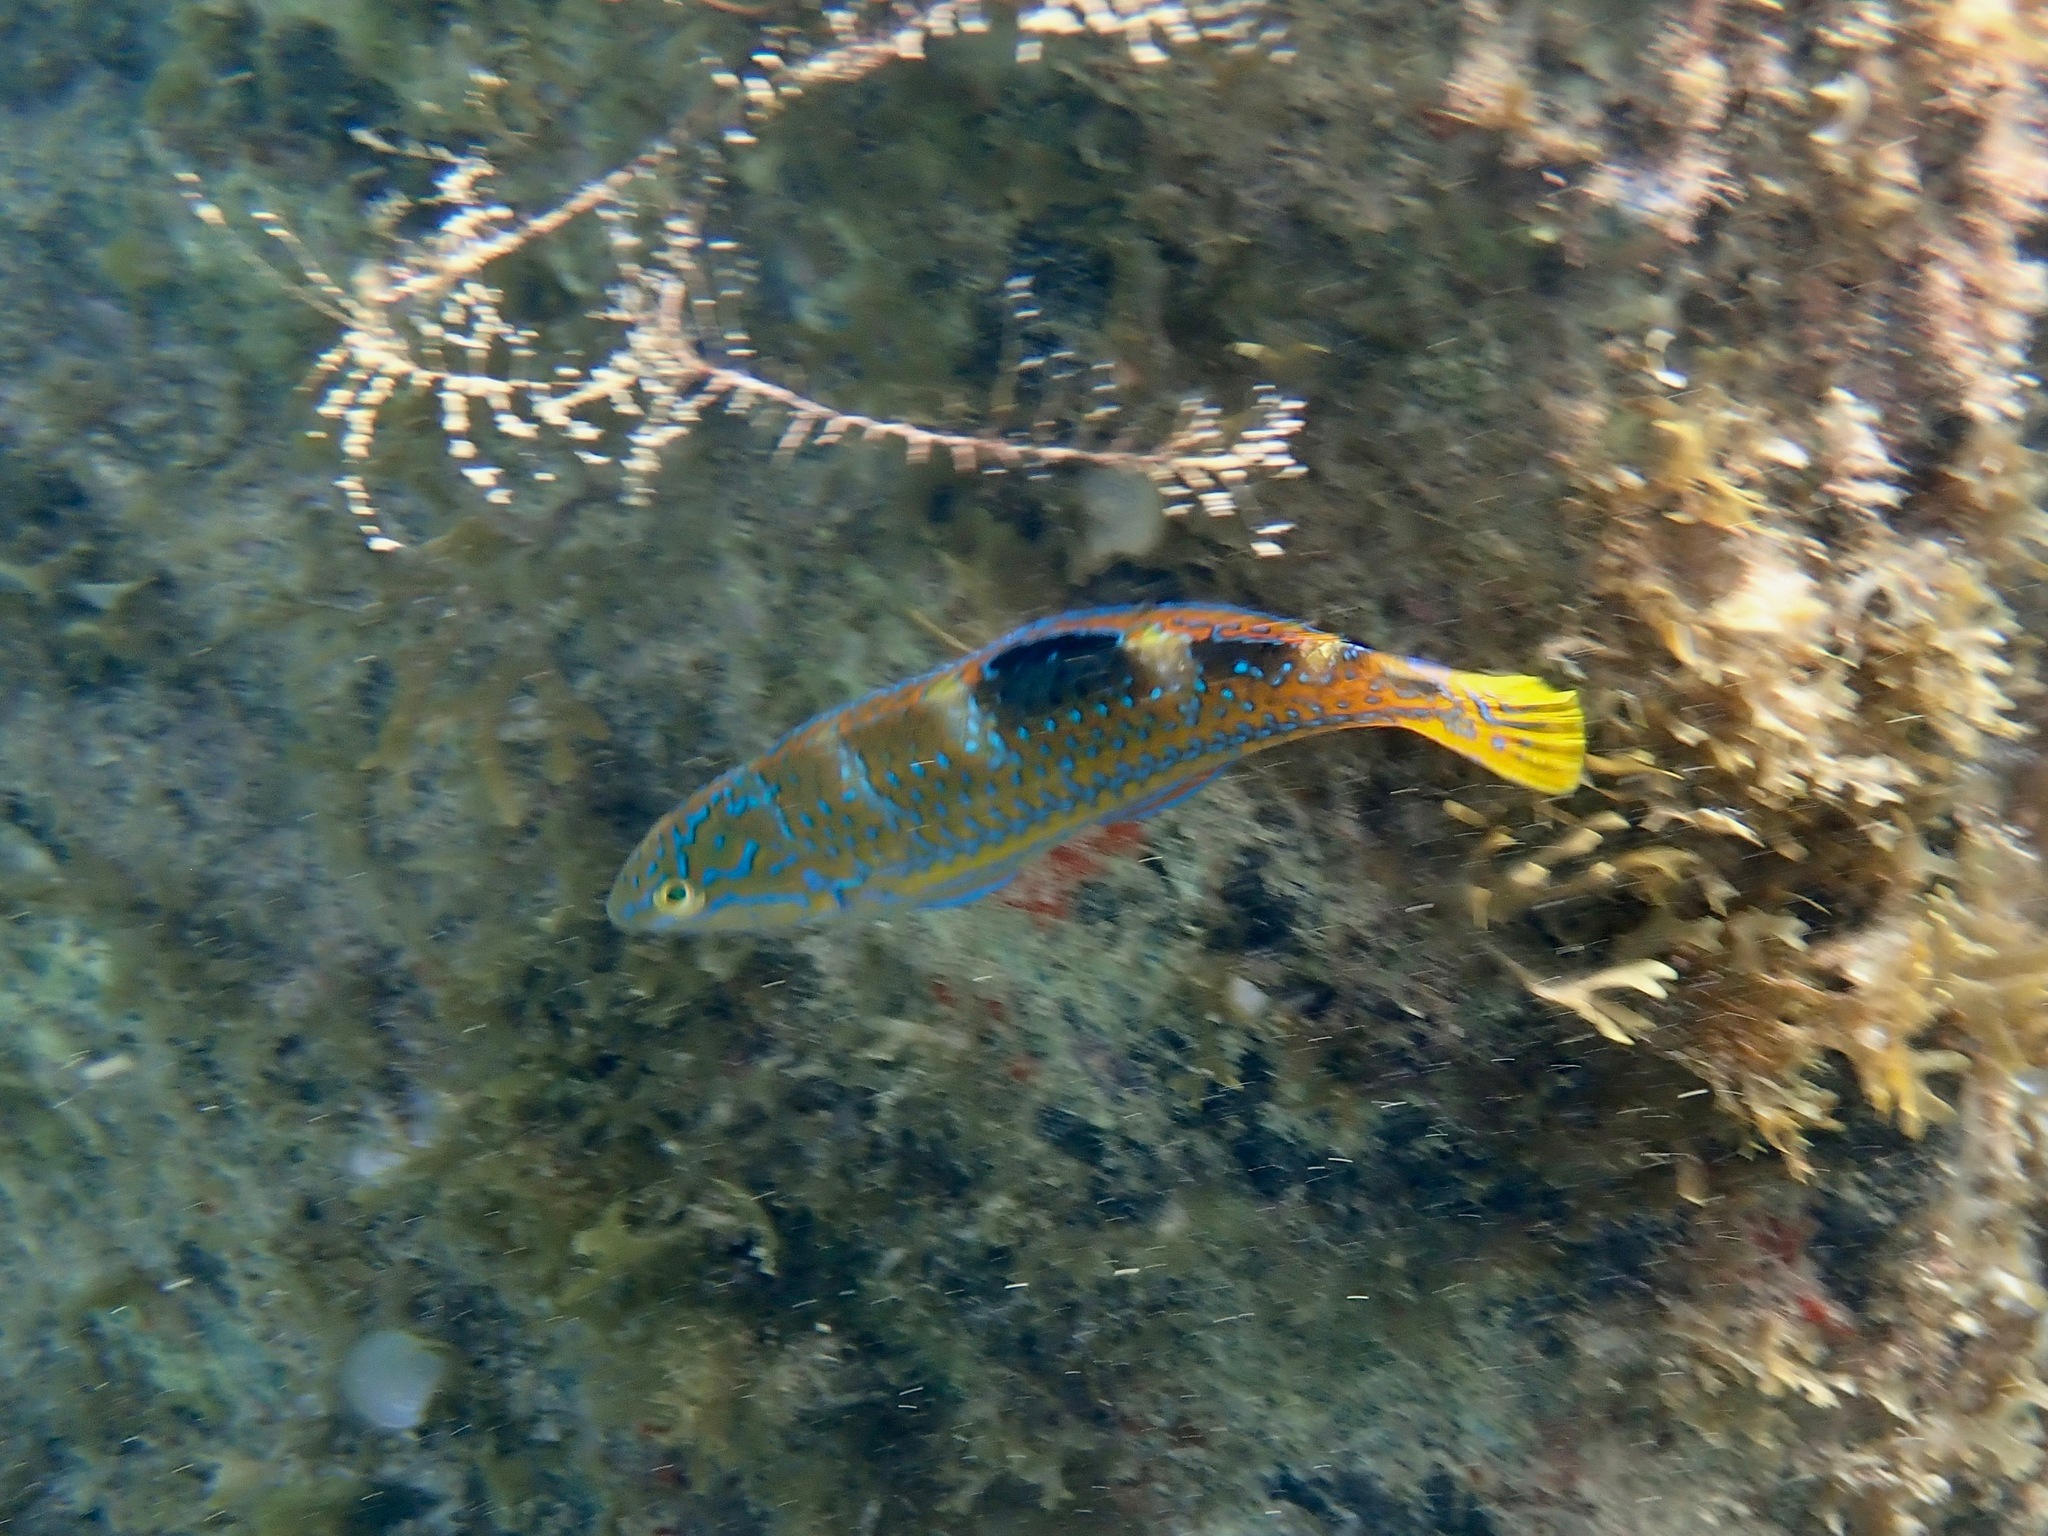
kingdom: Animalia
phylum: Chordata
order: Perciformes
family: Labridae
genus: Halichoeres
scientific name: Halichoeres radiatus
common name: Puddingwife
